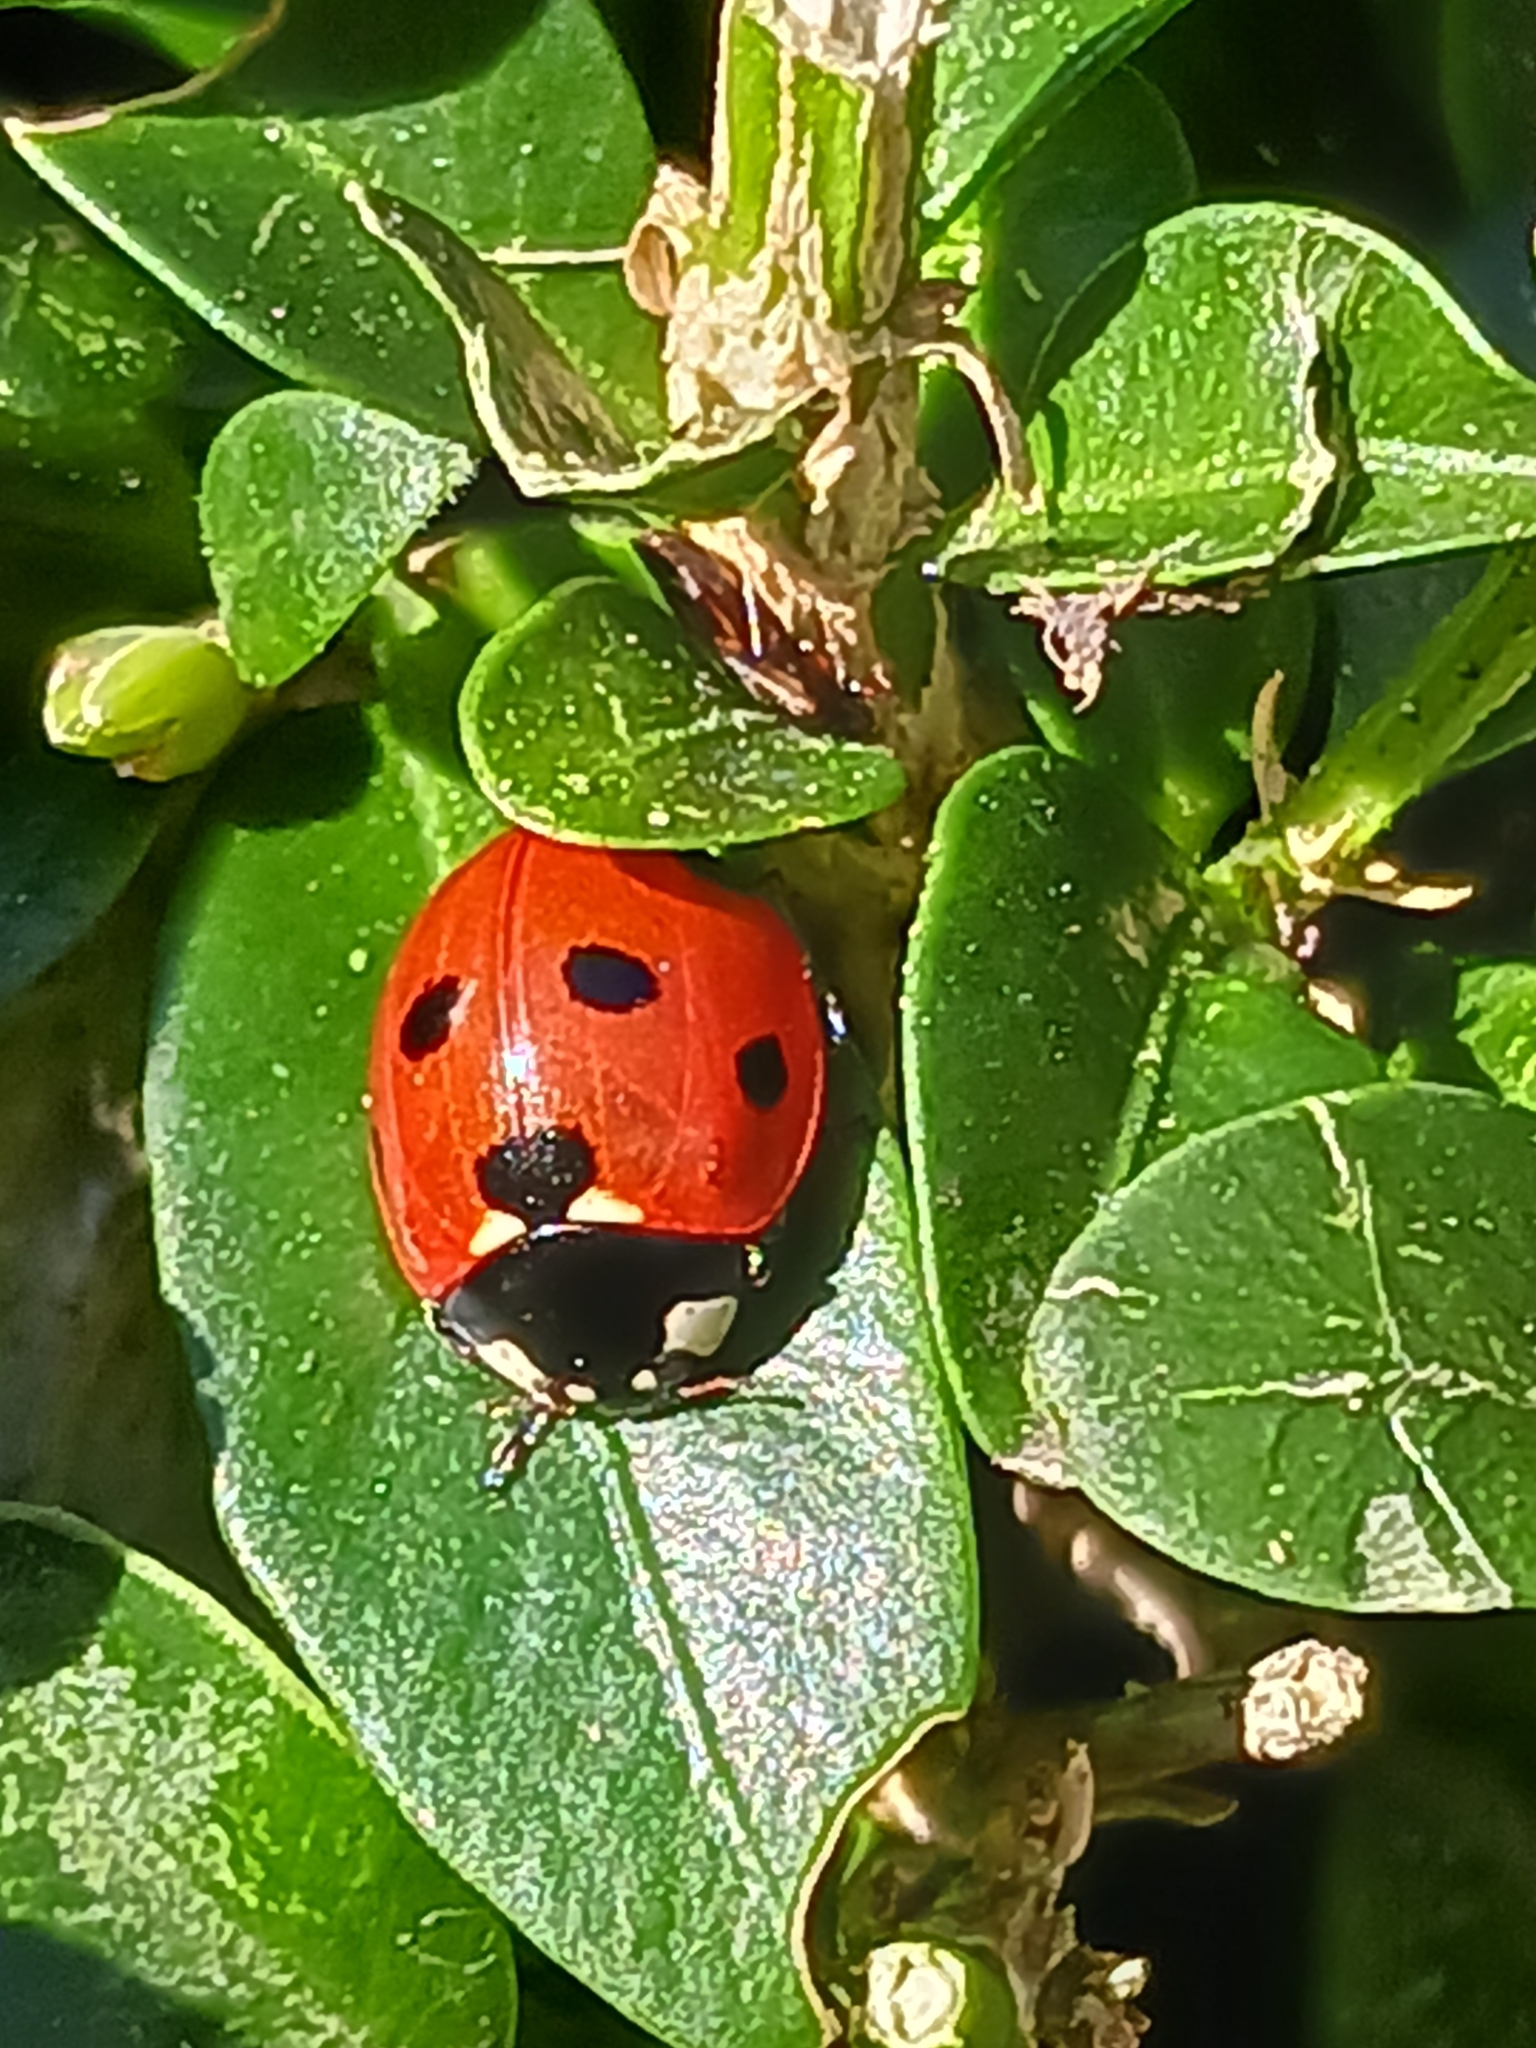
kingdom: Animalia
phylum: Arthropoda
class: Insecta
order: Coleoptera
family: Coccinellidae
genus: Coccinella
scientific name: Coccinella septempunctata
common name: Sevenspotted lady beetle
